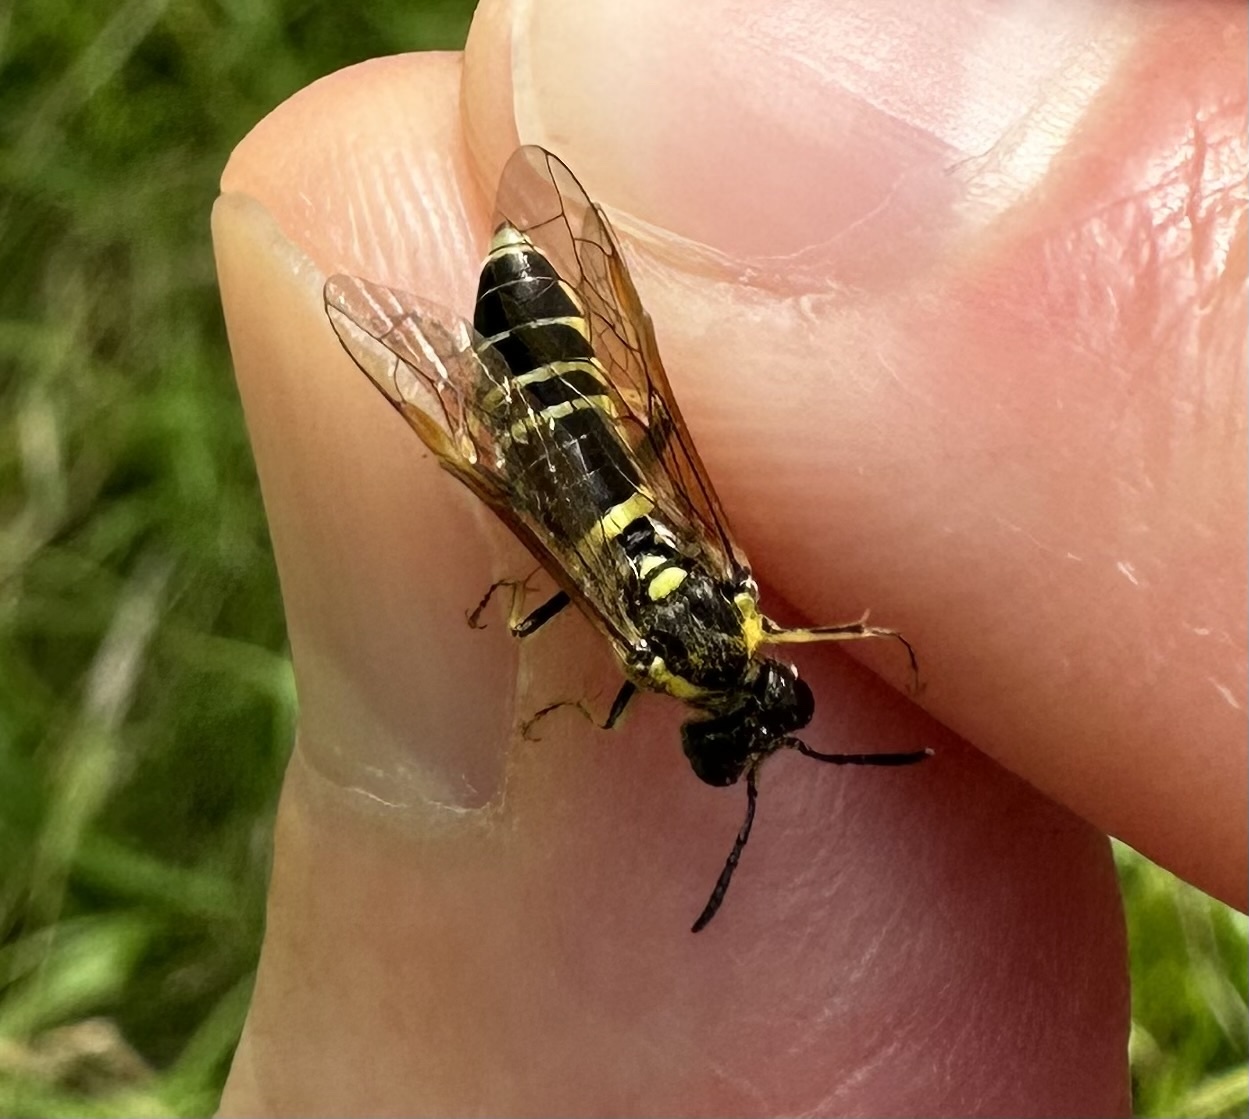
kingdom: Animalia
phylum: Arthropoda
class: Insecta
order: Hymenoptera
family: Tenthredinidae
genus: Tenthredo
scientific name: Tenthredo notha
